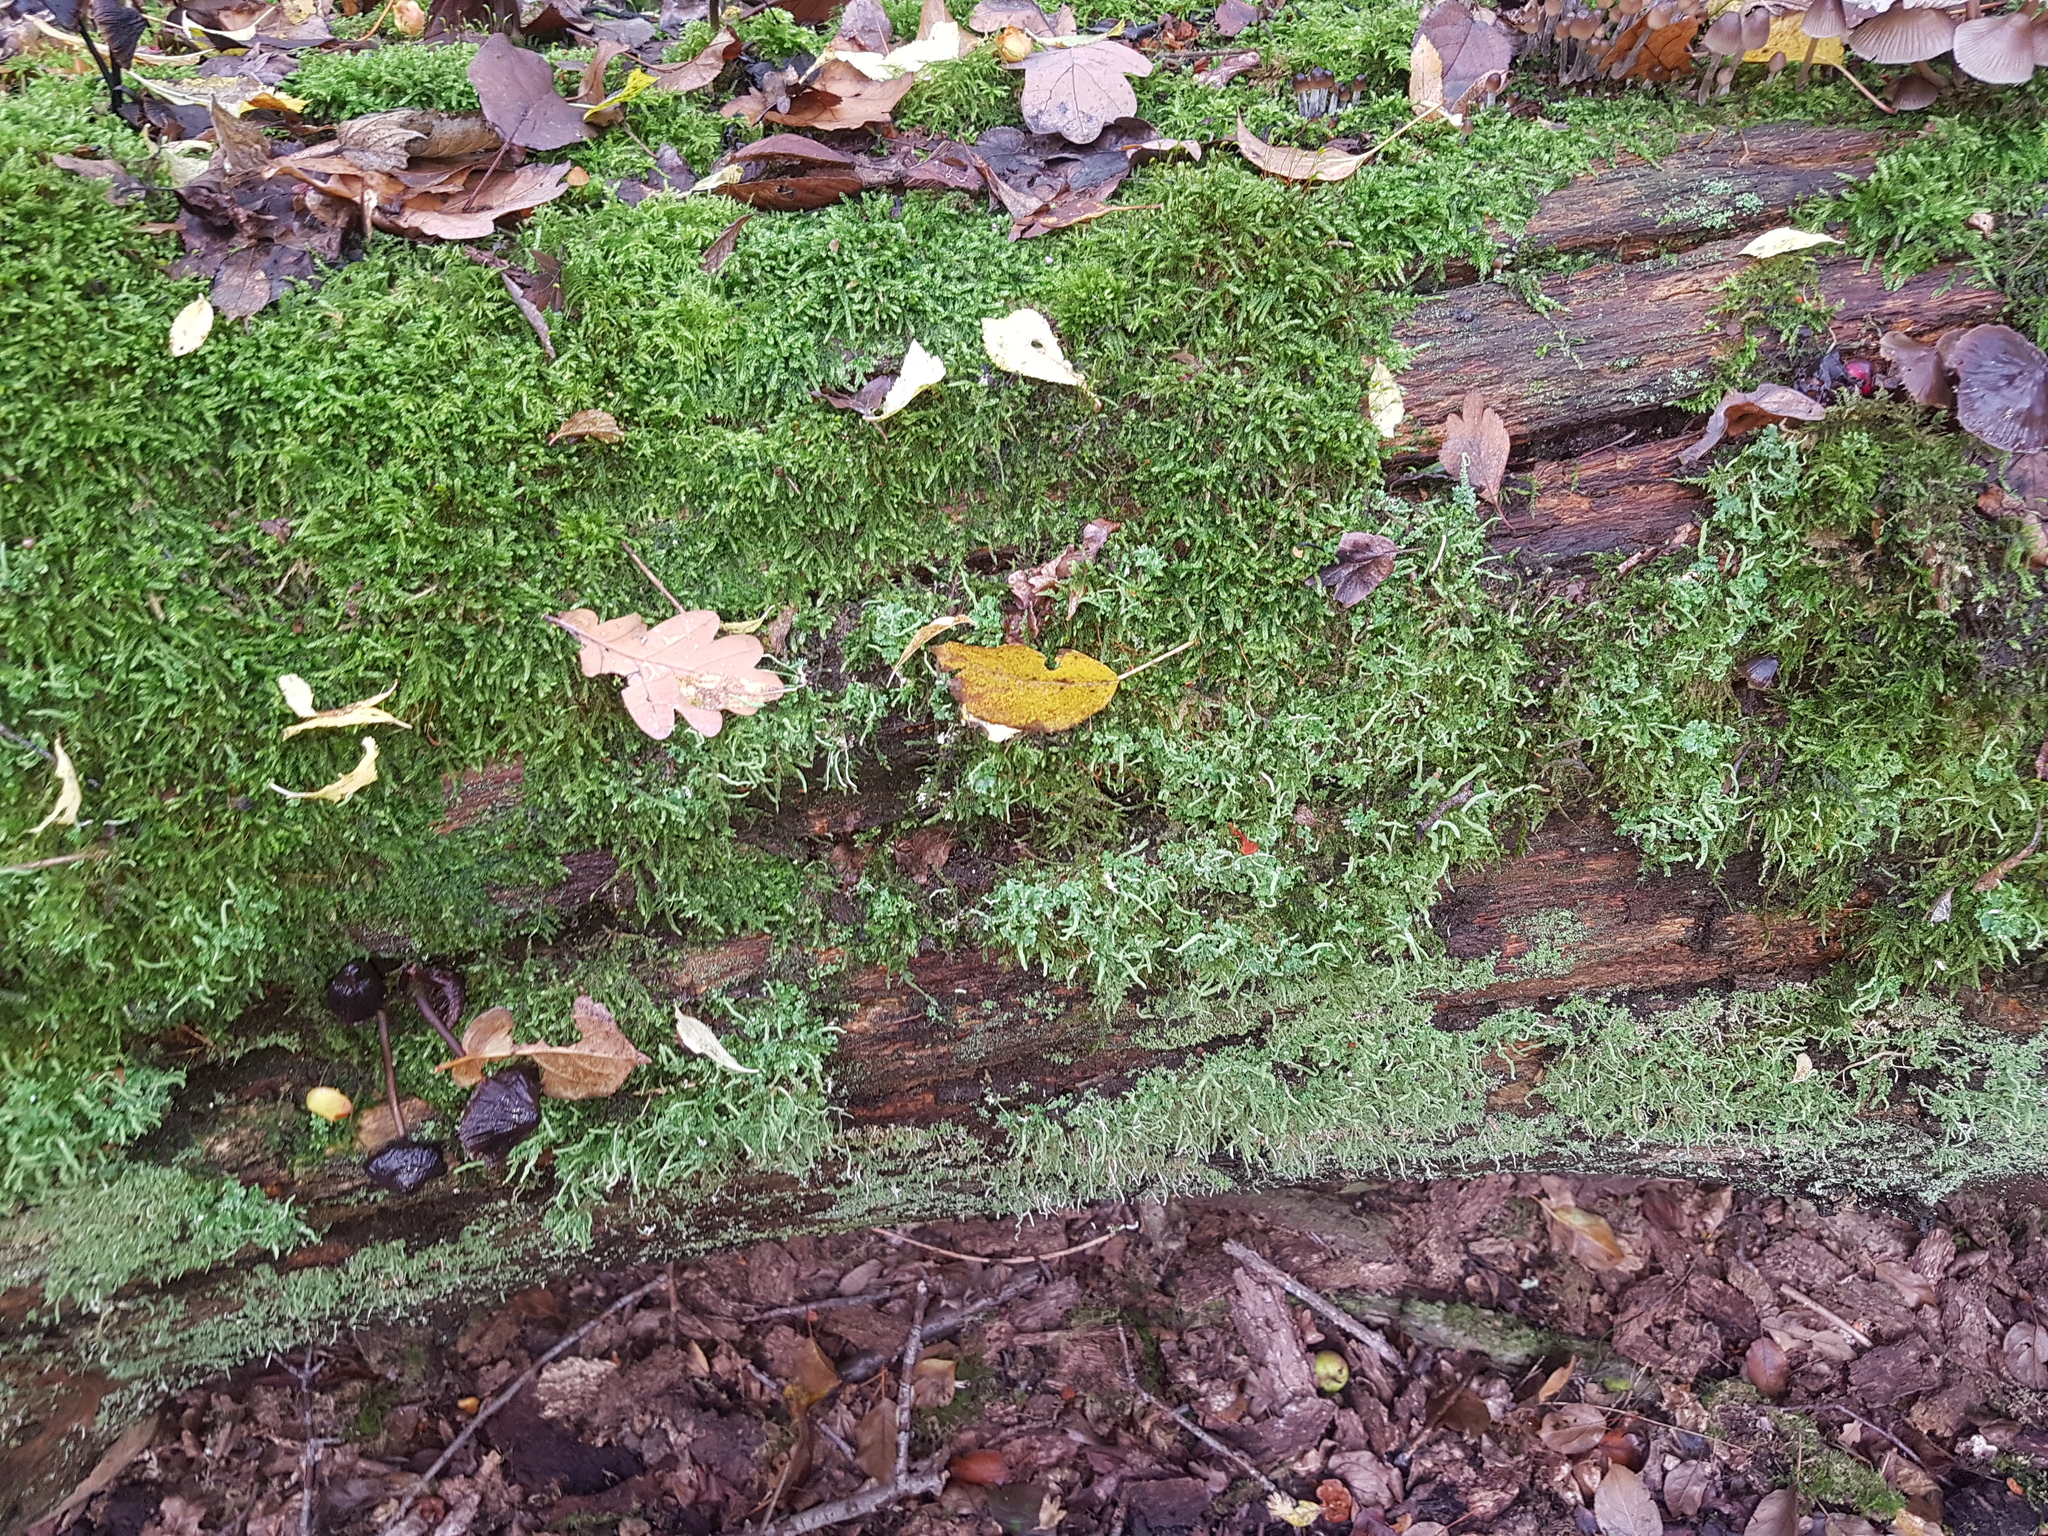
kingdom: Plantae
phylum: Bryophyta
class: Bryopsida
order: Hypnales
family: Hypnaceae
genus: Hypnum
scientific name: Hypnum cupressiforme
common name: Cypress-leaved plait-moss
